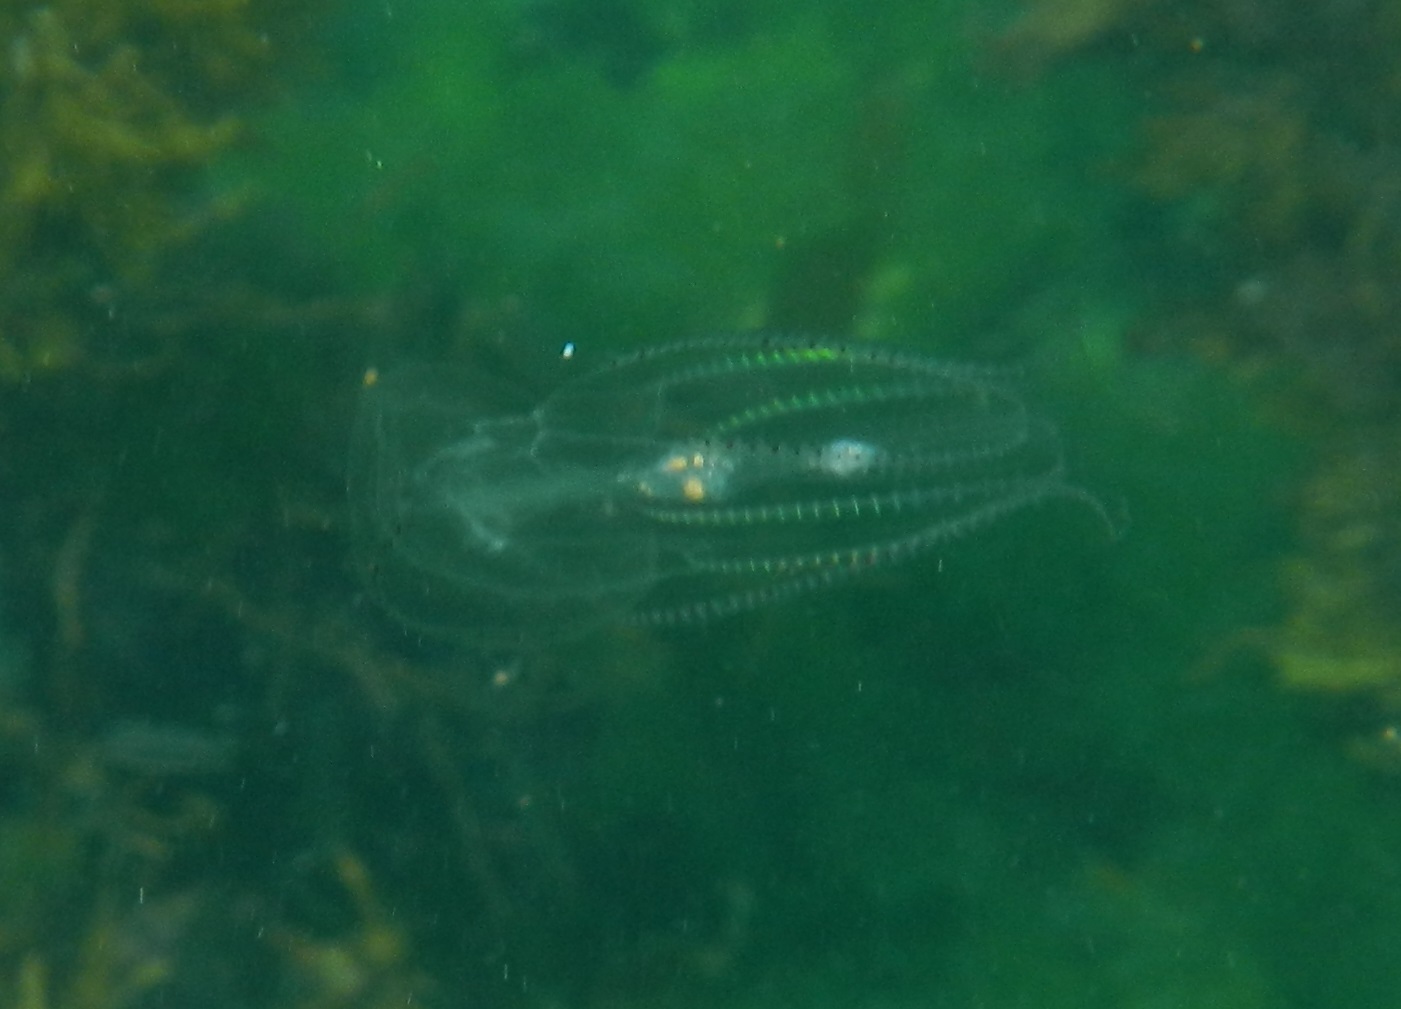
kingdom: Animalia
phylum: Ctenophora
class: Tentaculata
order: Lobata
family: Eurhamphaeidae
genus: Eurhamphaea
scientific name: Eurhamphaea vexilligera
